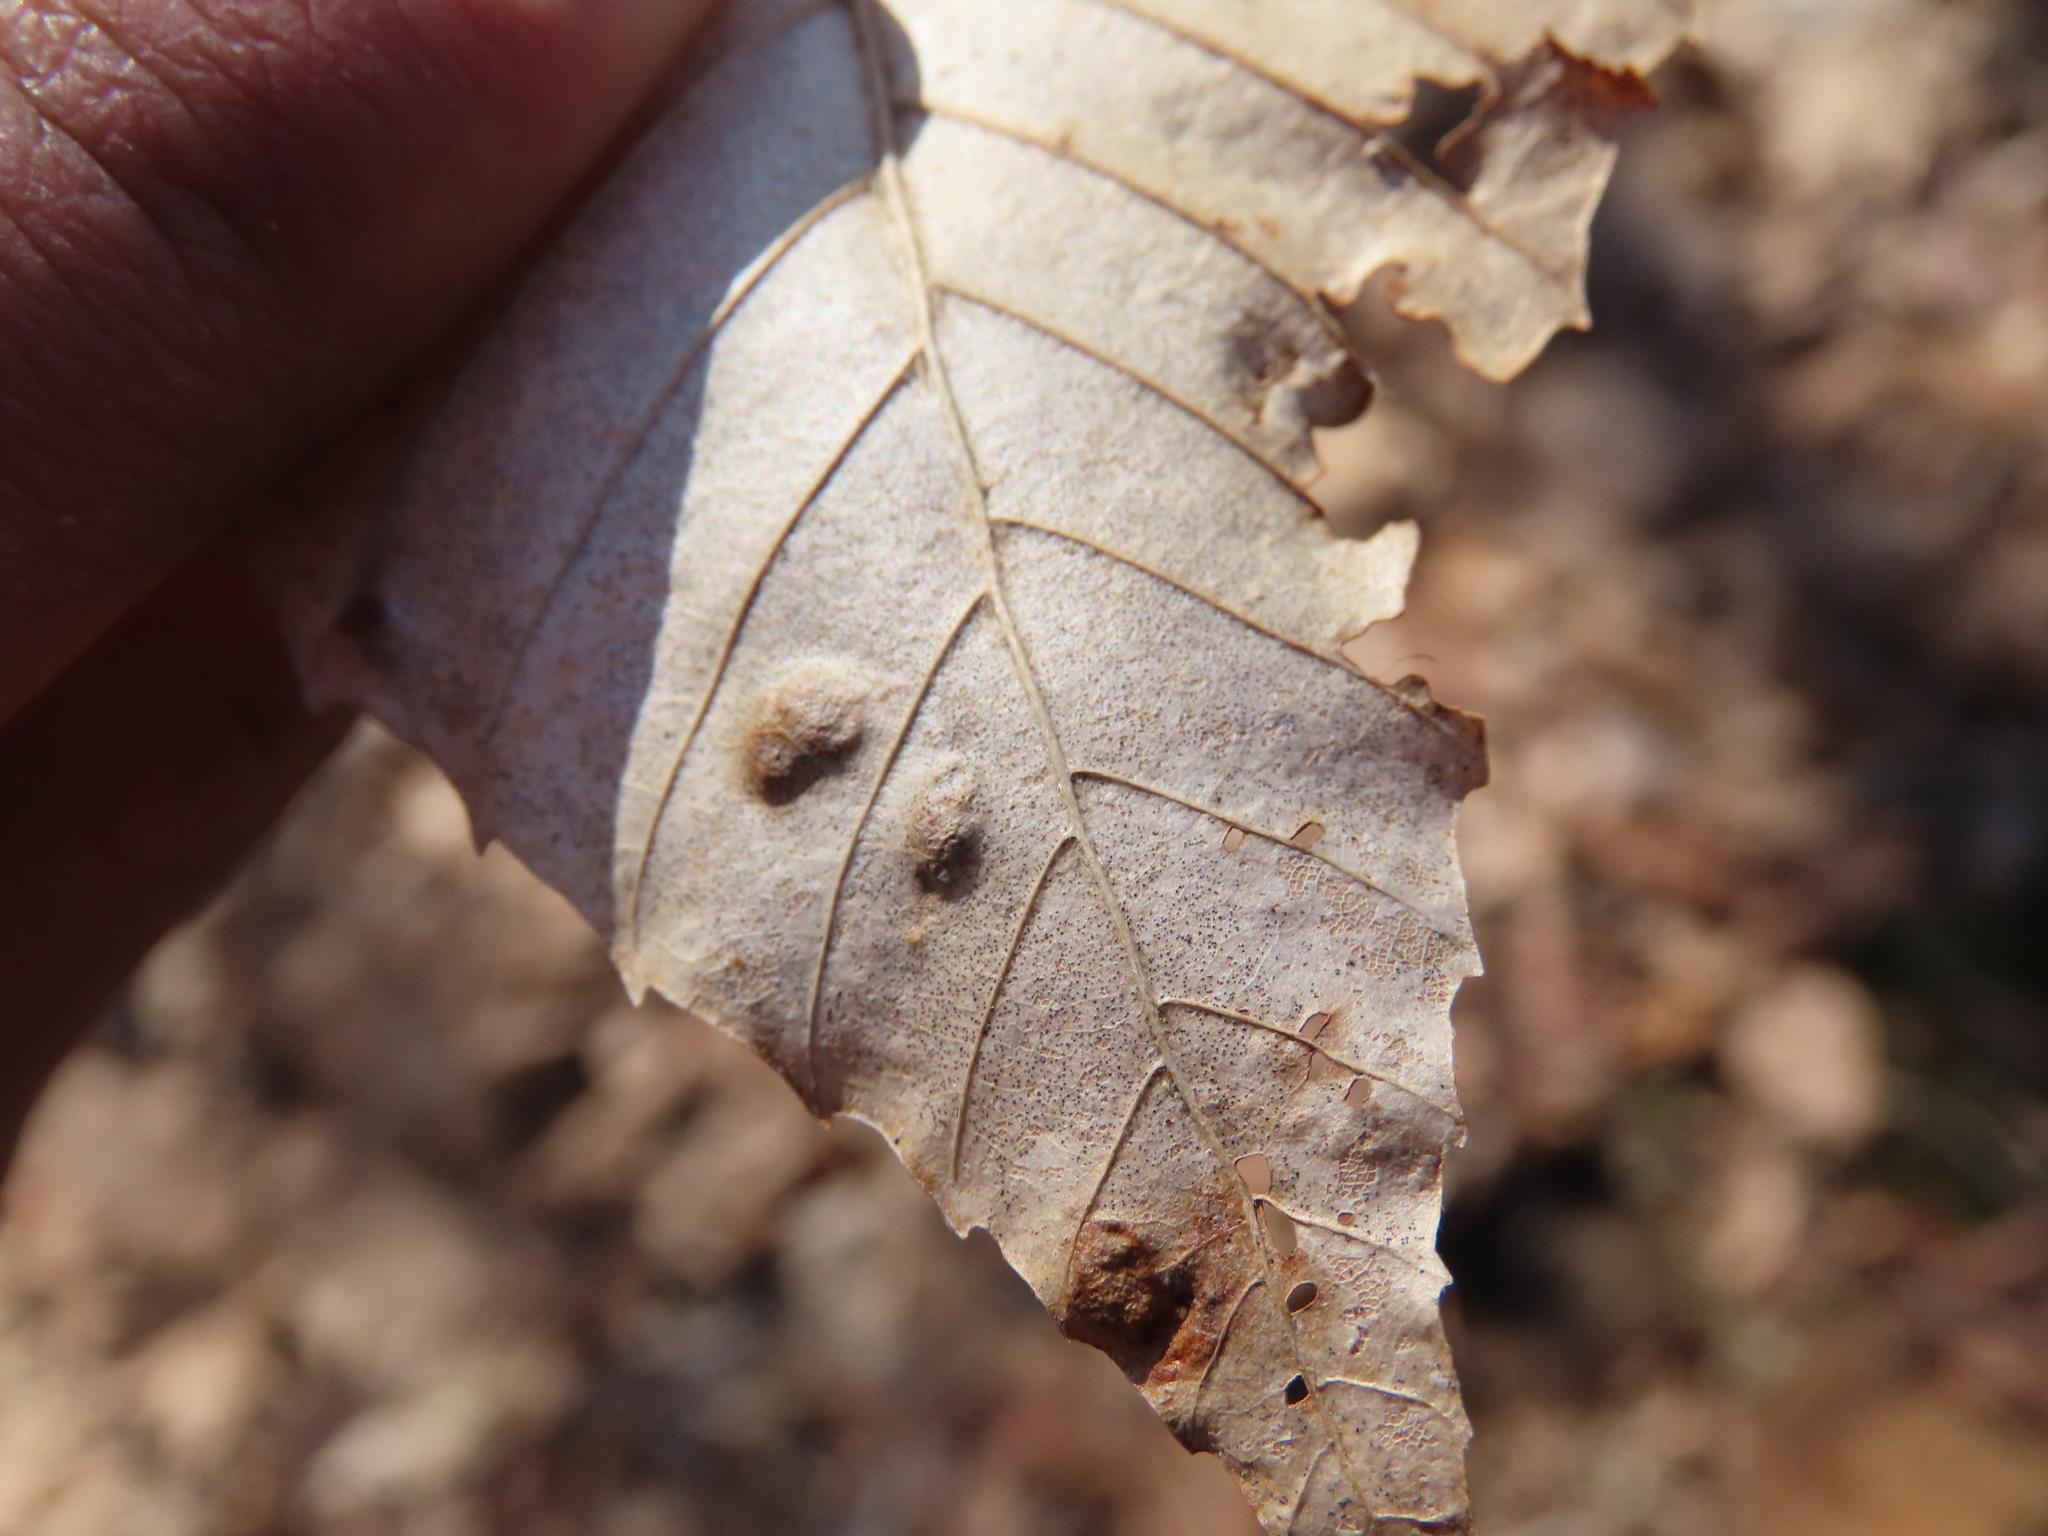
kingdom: Animalia
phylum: Arthropoda
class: Arachnida
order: Trombidiformes
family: Eriophyidae
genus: Acalitus
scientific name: Acalitus
